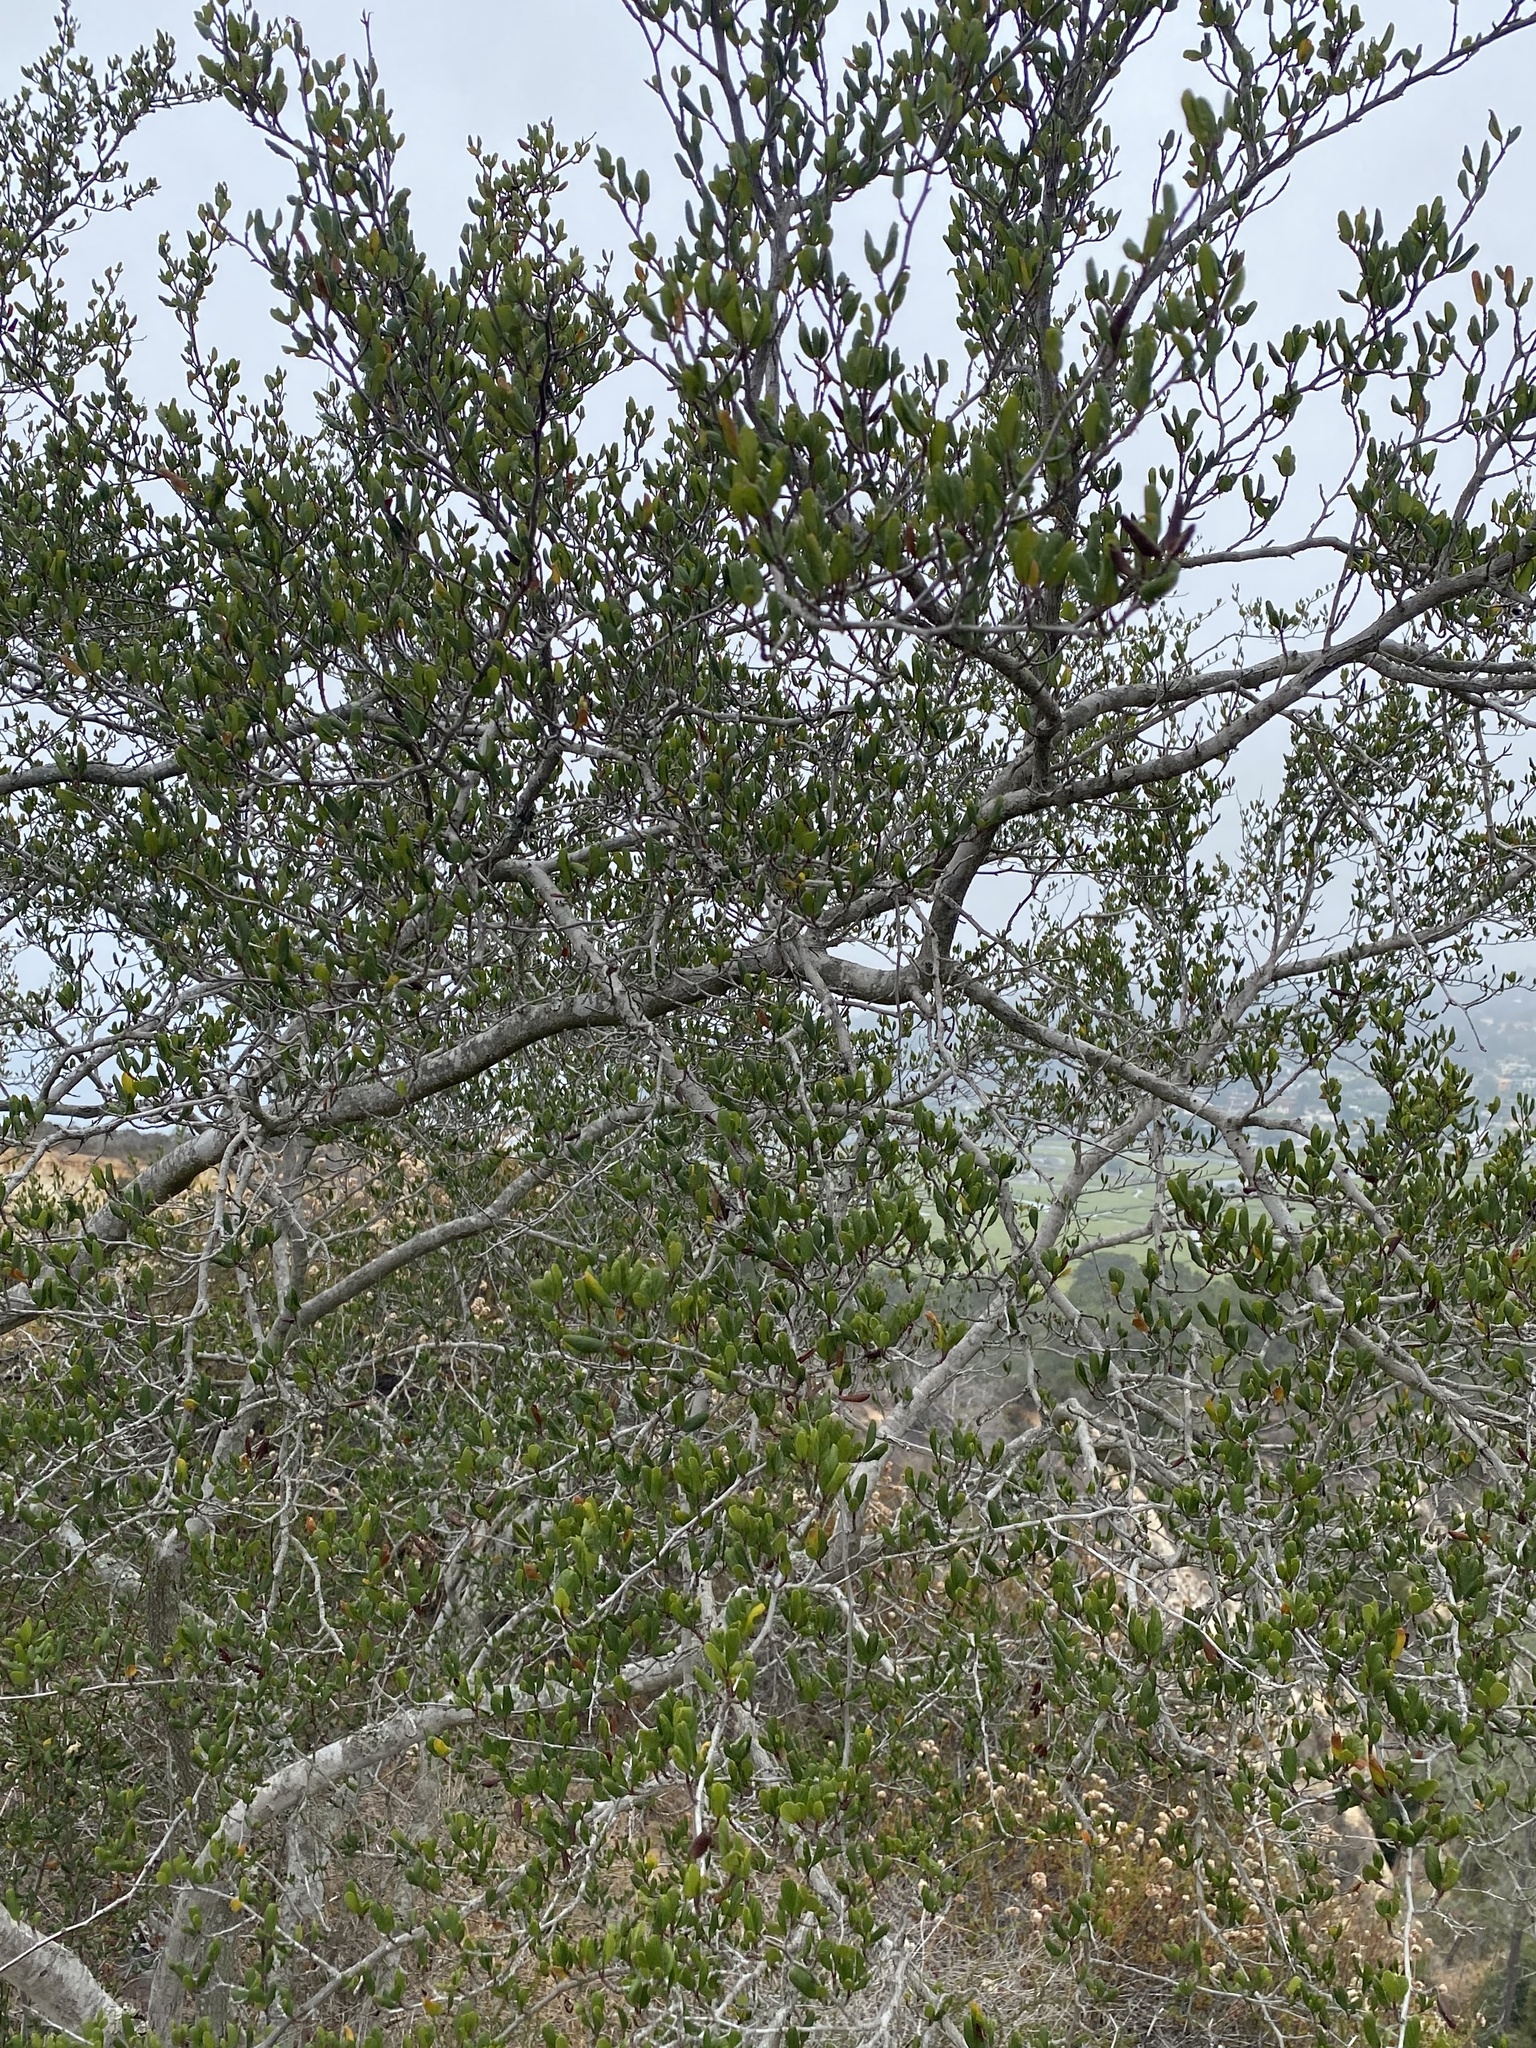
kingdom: Plantae
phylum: Tracheophyta
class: Magnoliopsida
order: Rosales
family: Rosaceae
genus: Cercocarpus
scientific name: Cercocarpus montanus
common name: Alder-leaf cercocarpus
